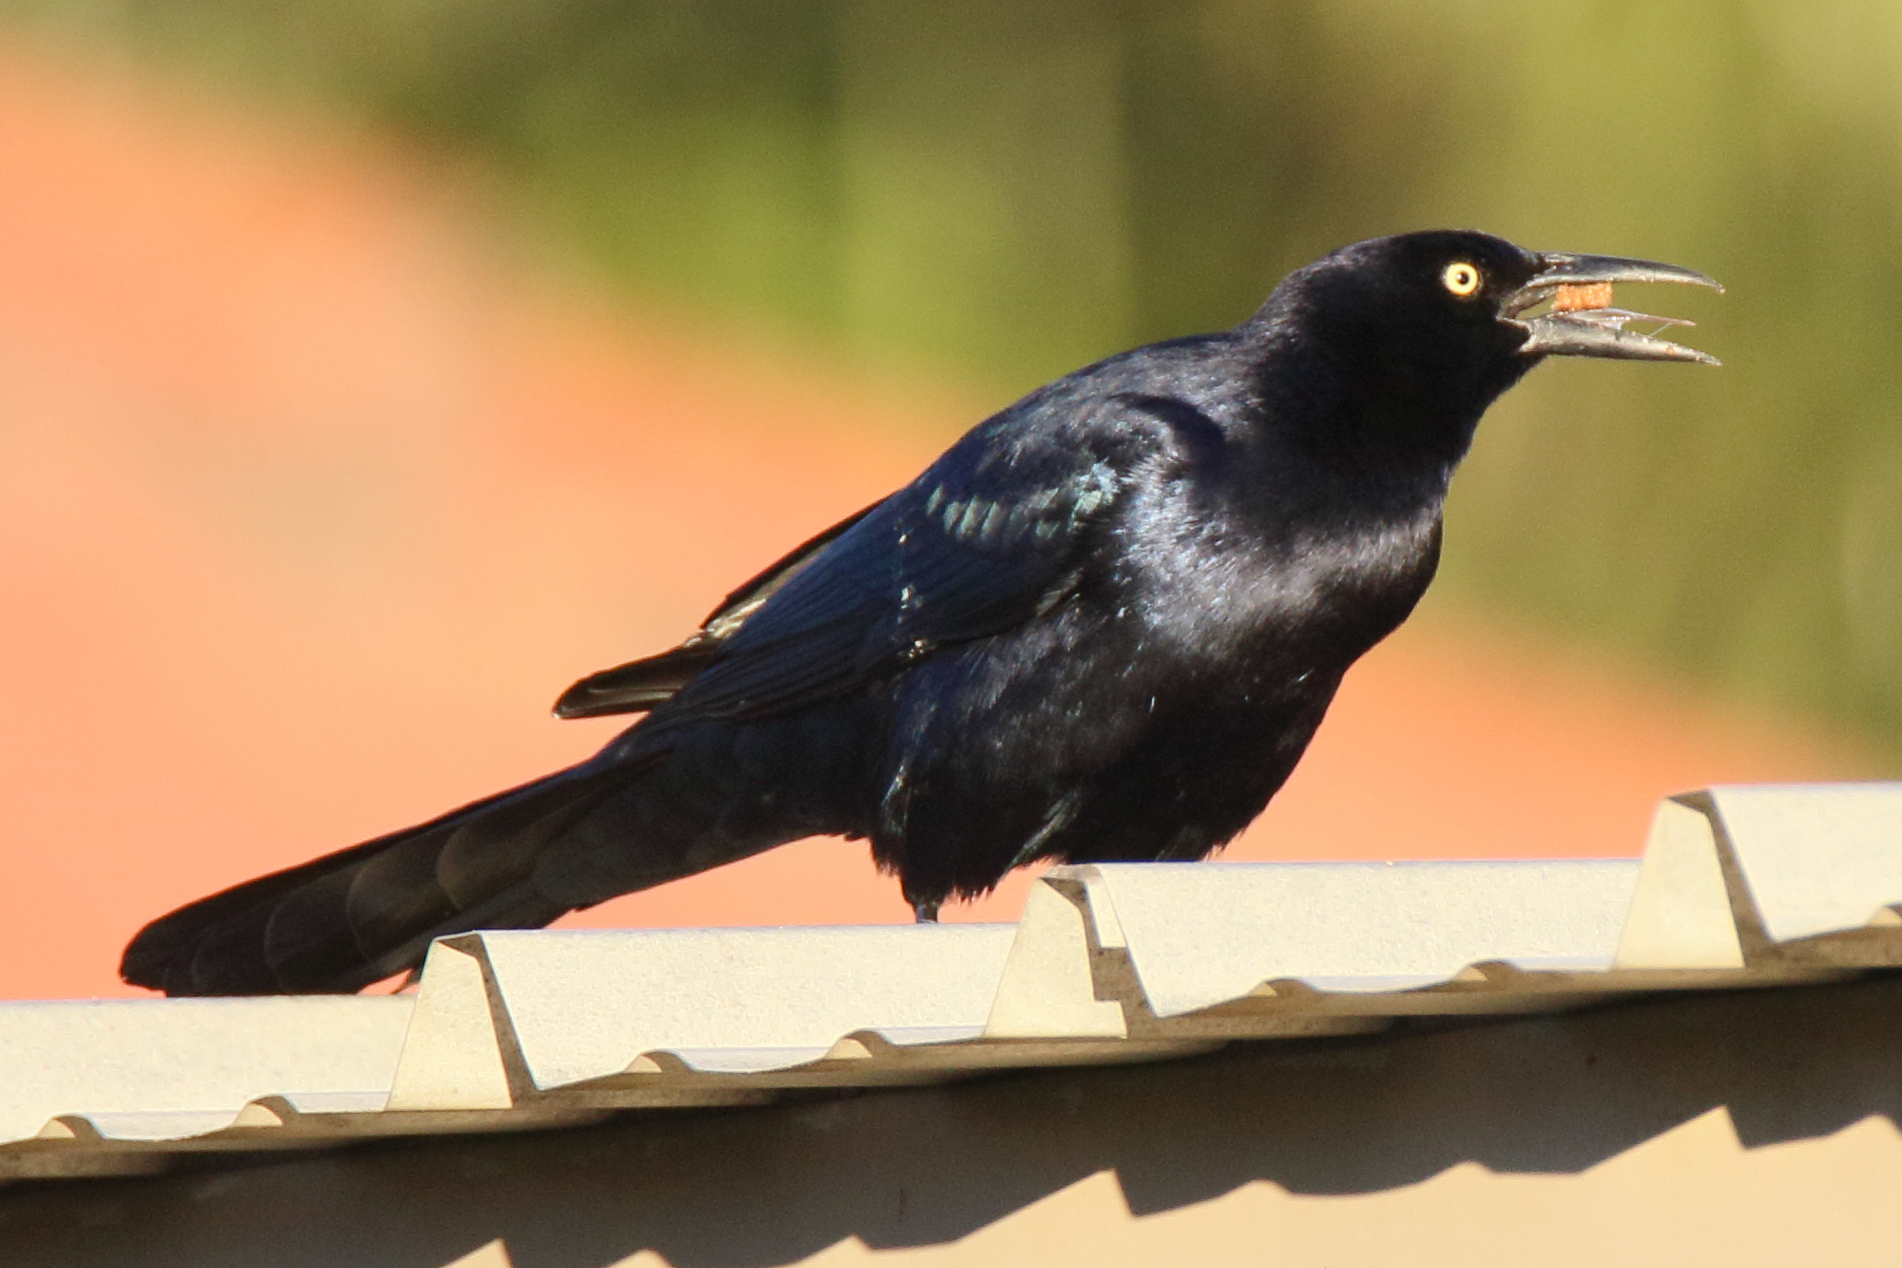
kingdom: Animalia
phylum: Chordata
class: Aves
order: Passeriformes
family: Icteridae
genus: Quiscalus
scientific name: Quiscalus mexicanus
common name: Great-tailed grackle
